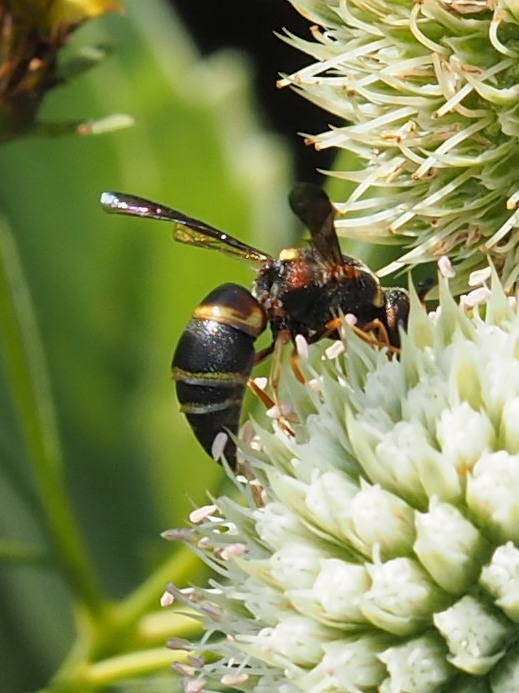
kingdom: Animalia
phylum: Arthropoda
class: Insecta
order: Hymenoptera
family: Eumenidae
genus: Euodynerus
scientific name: Euodynerus hidalgo
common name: Wasp
